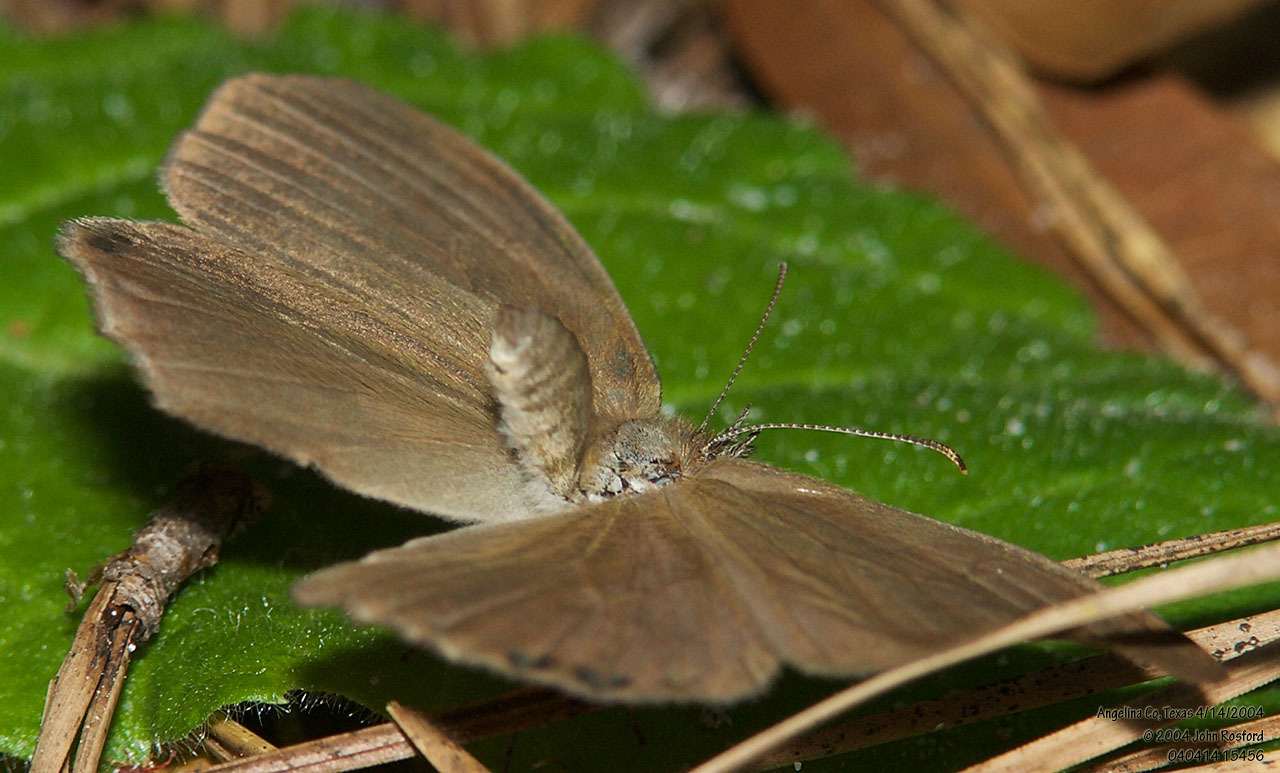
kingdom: Animalia
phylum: Arthropoda
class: Insecta
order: Lepidoptera
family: Nymphalidae
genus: Euptychia
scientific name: Euptychia cornelius
